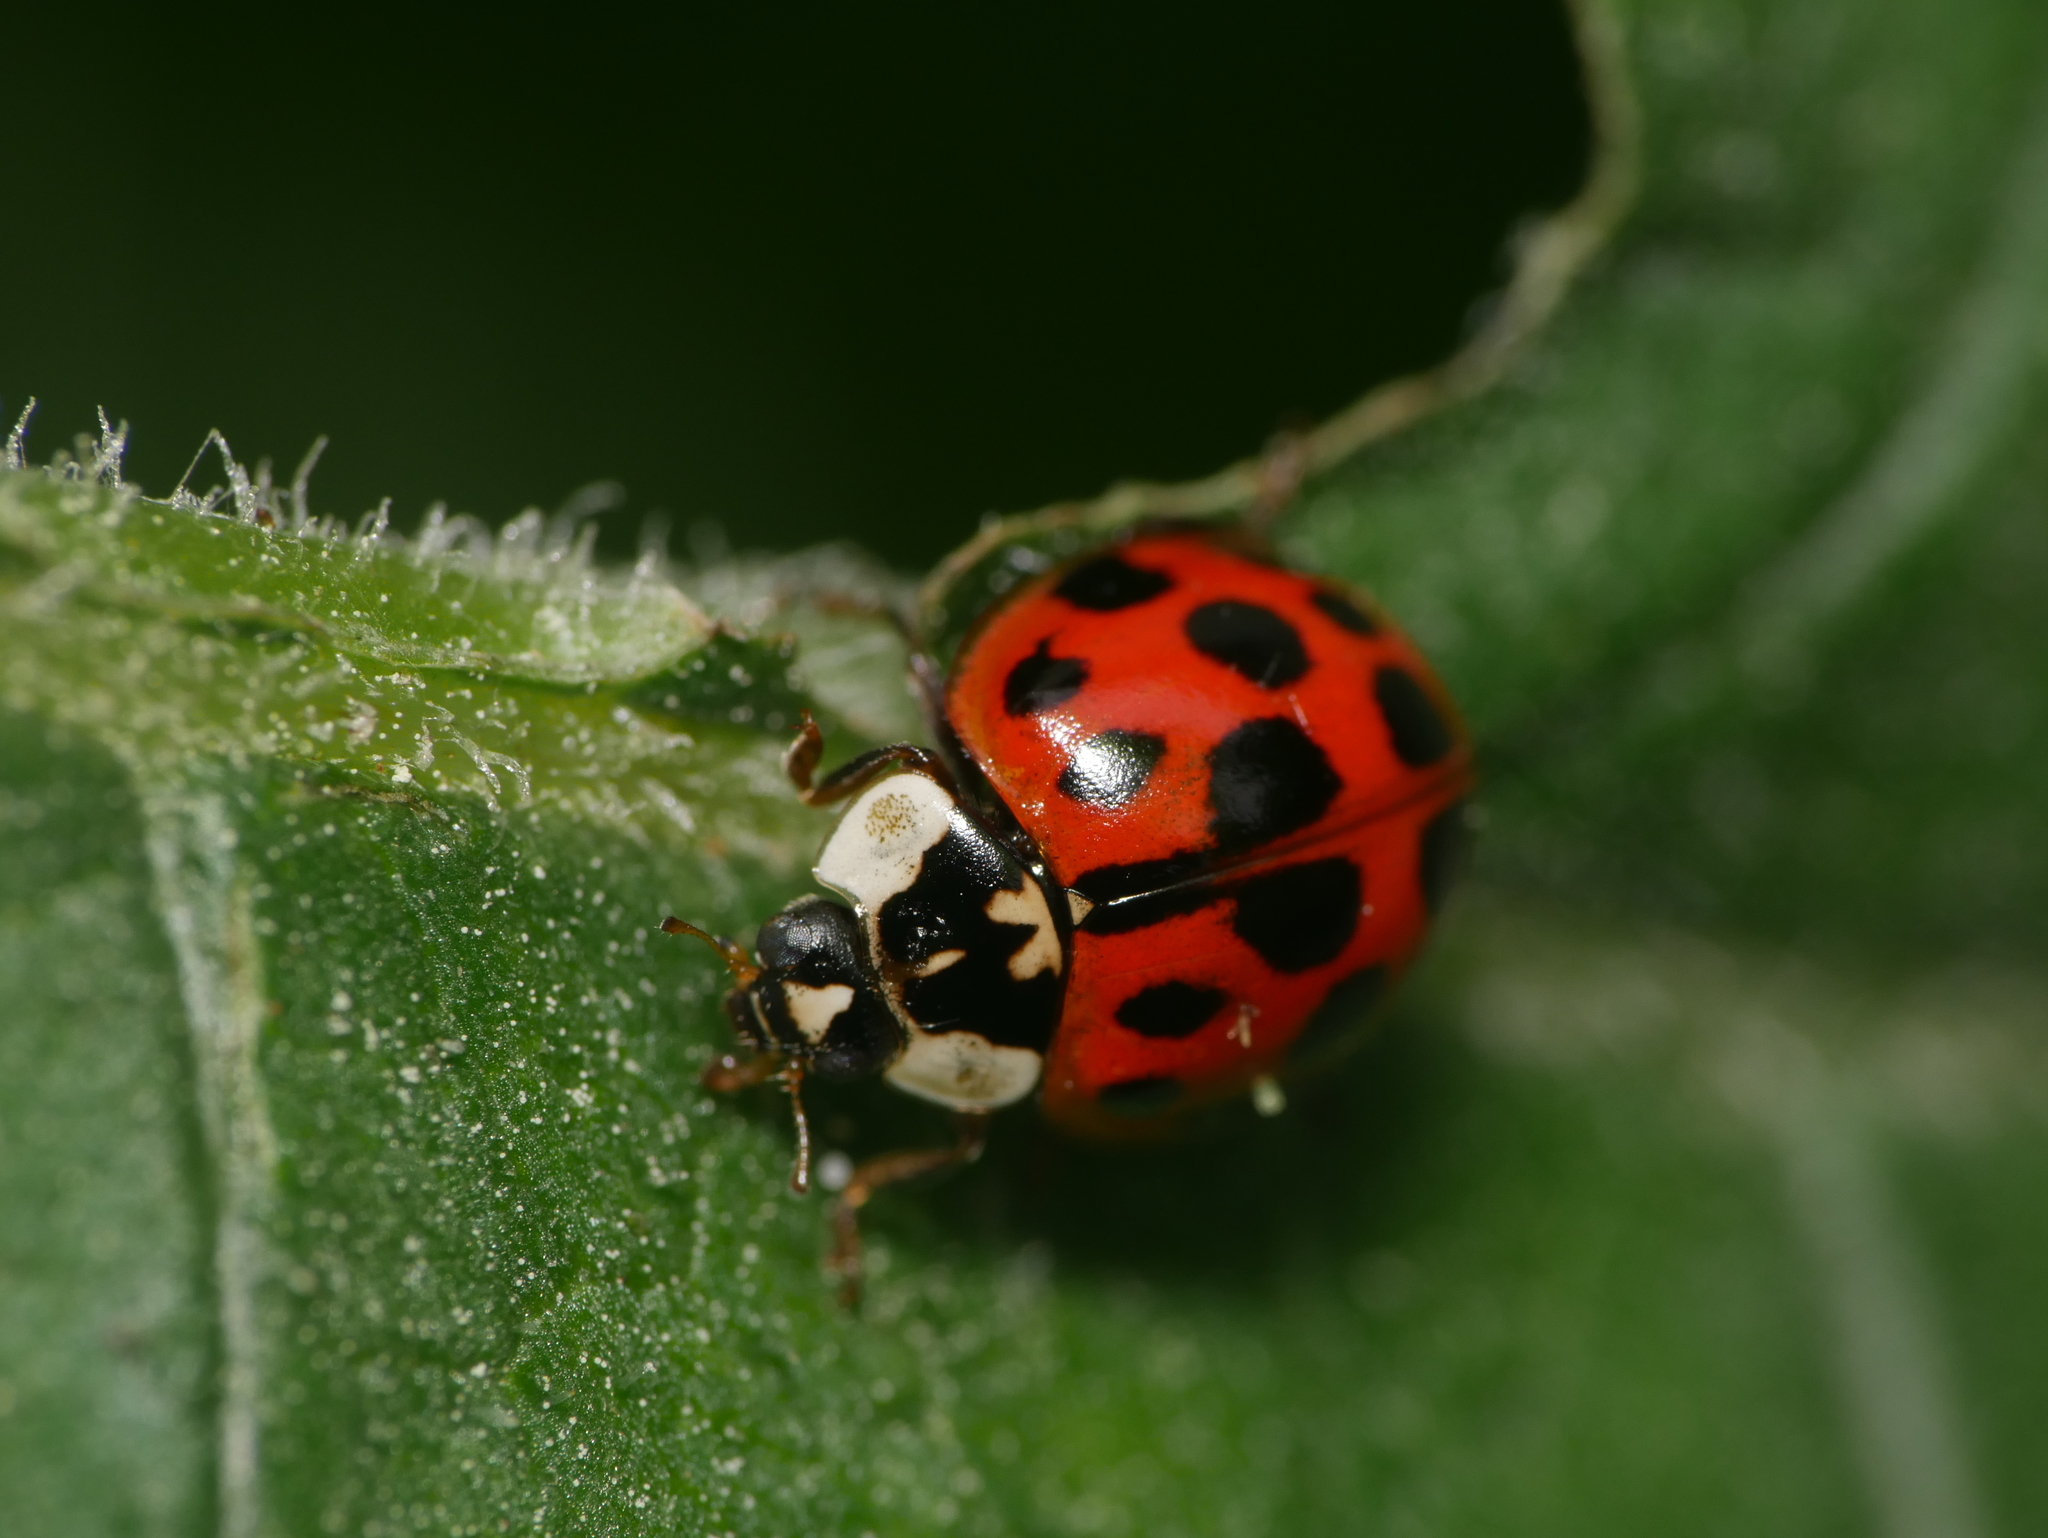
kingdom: Animalia
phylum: Arthropoda
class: Insecta
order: Coleoptera
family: Coccinellidae
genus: Harmonia
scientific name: Harmonia axyridis
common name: Harlequin ladybird
